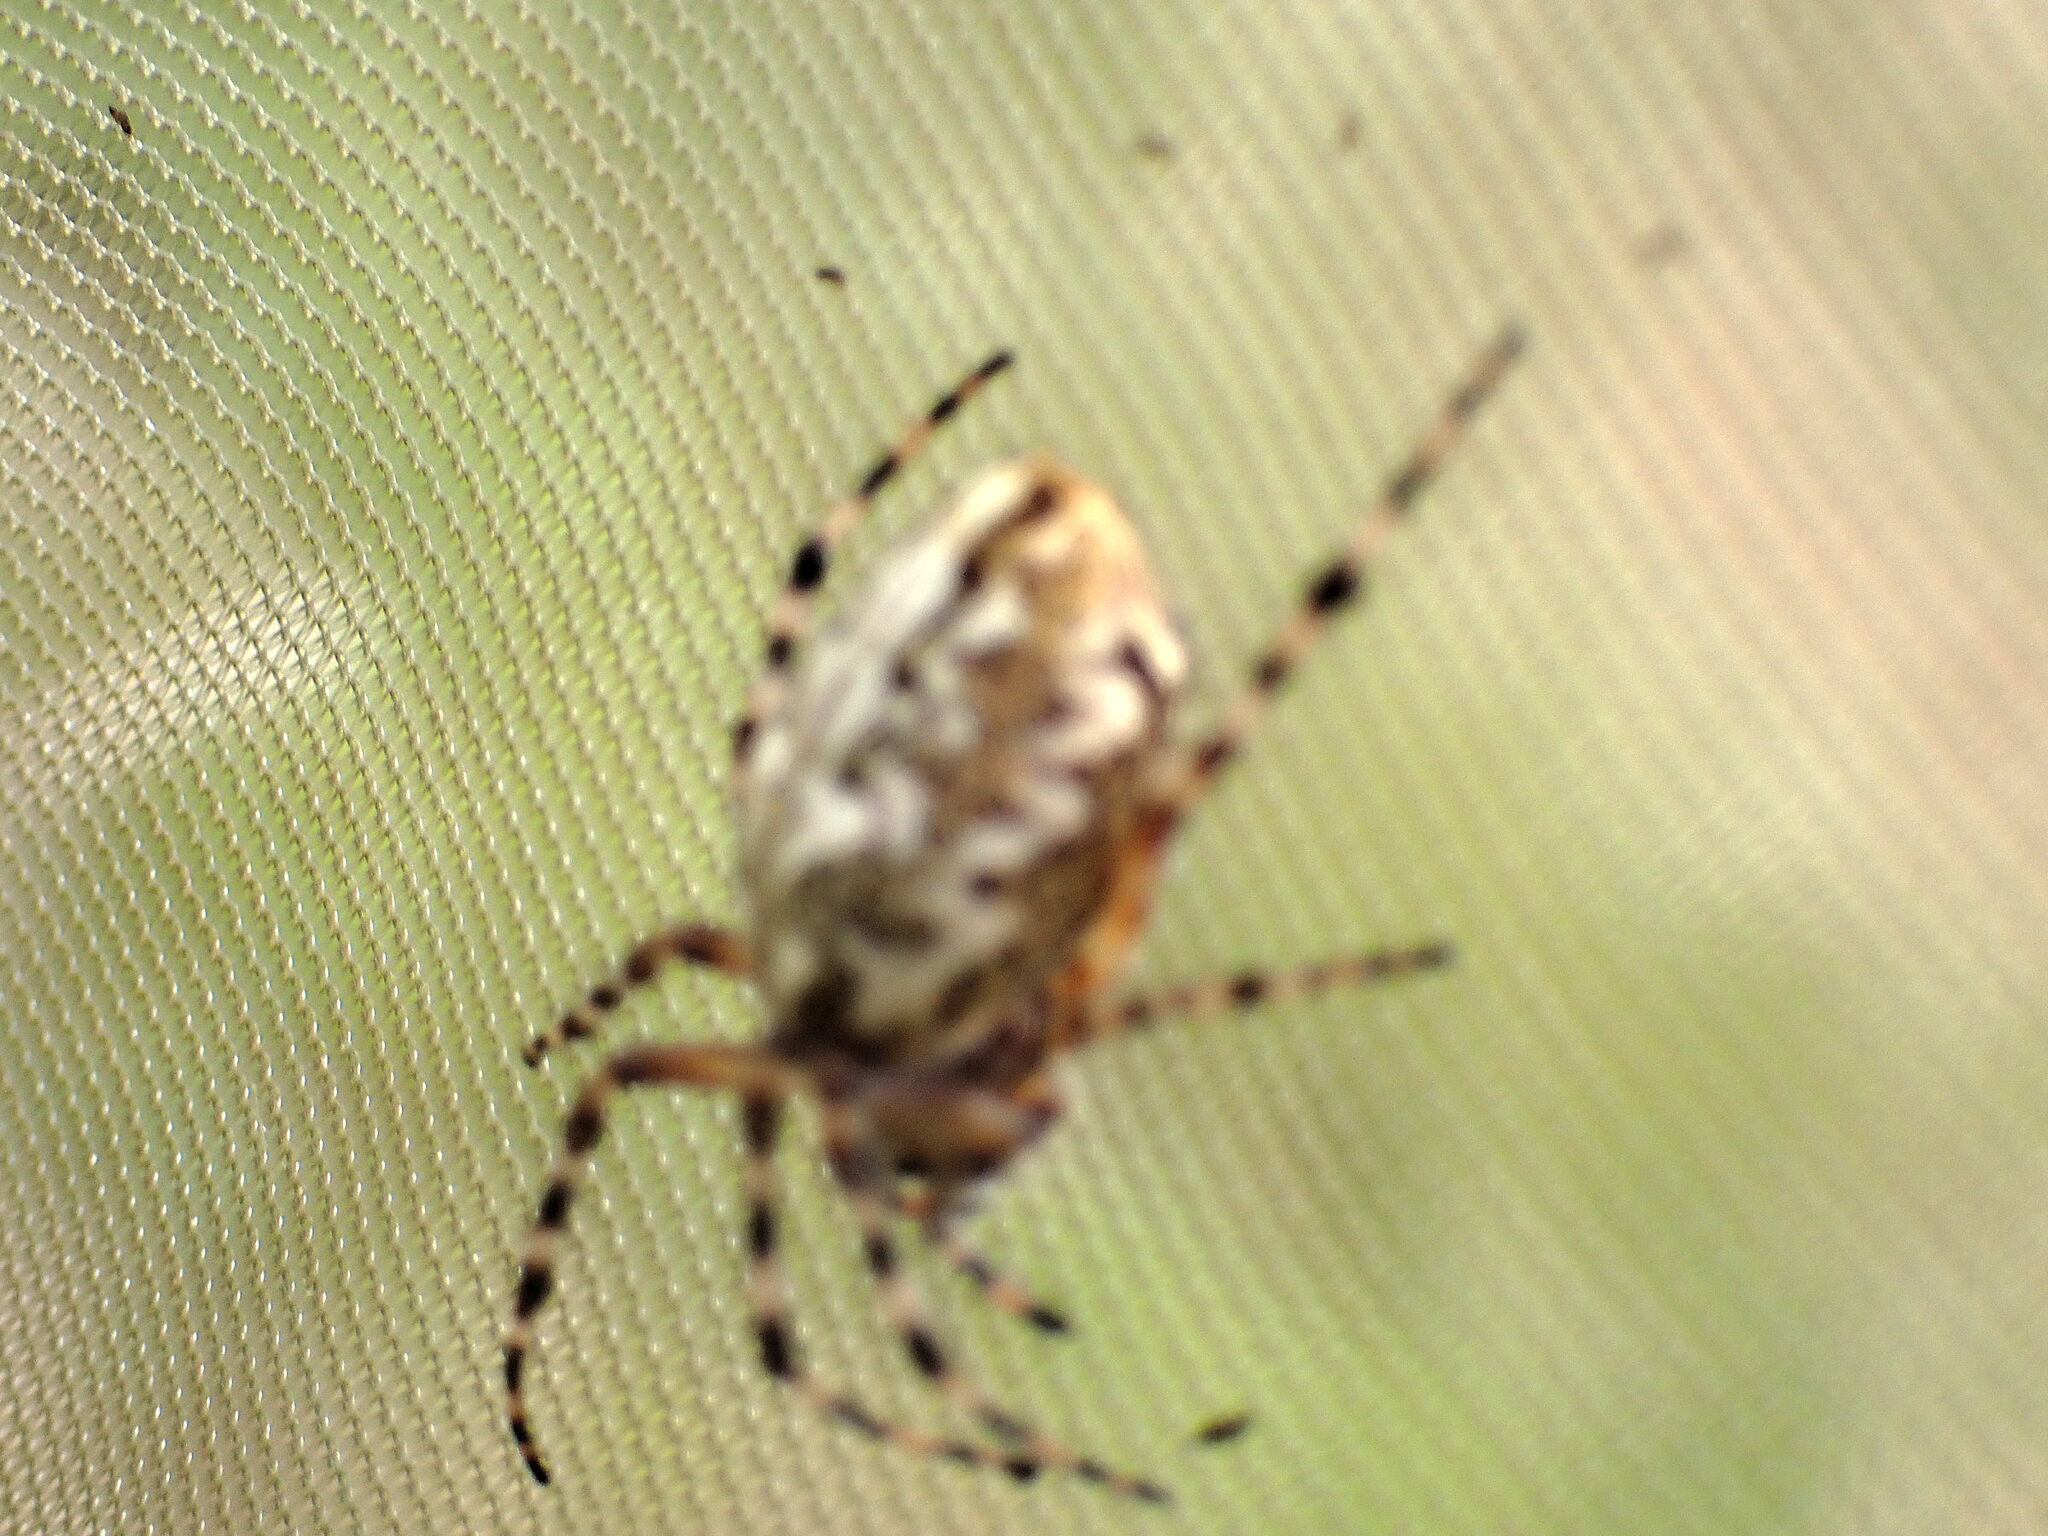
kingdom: Animalia
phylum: Arthropoda
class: Arachnida
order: Araneae
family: Araneidae
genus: Aculepeira
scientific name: Aculepeira ceropegia
